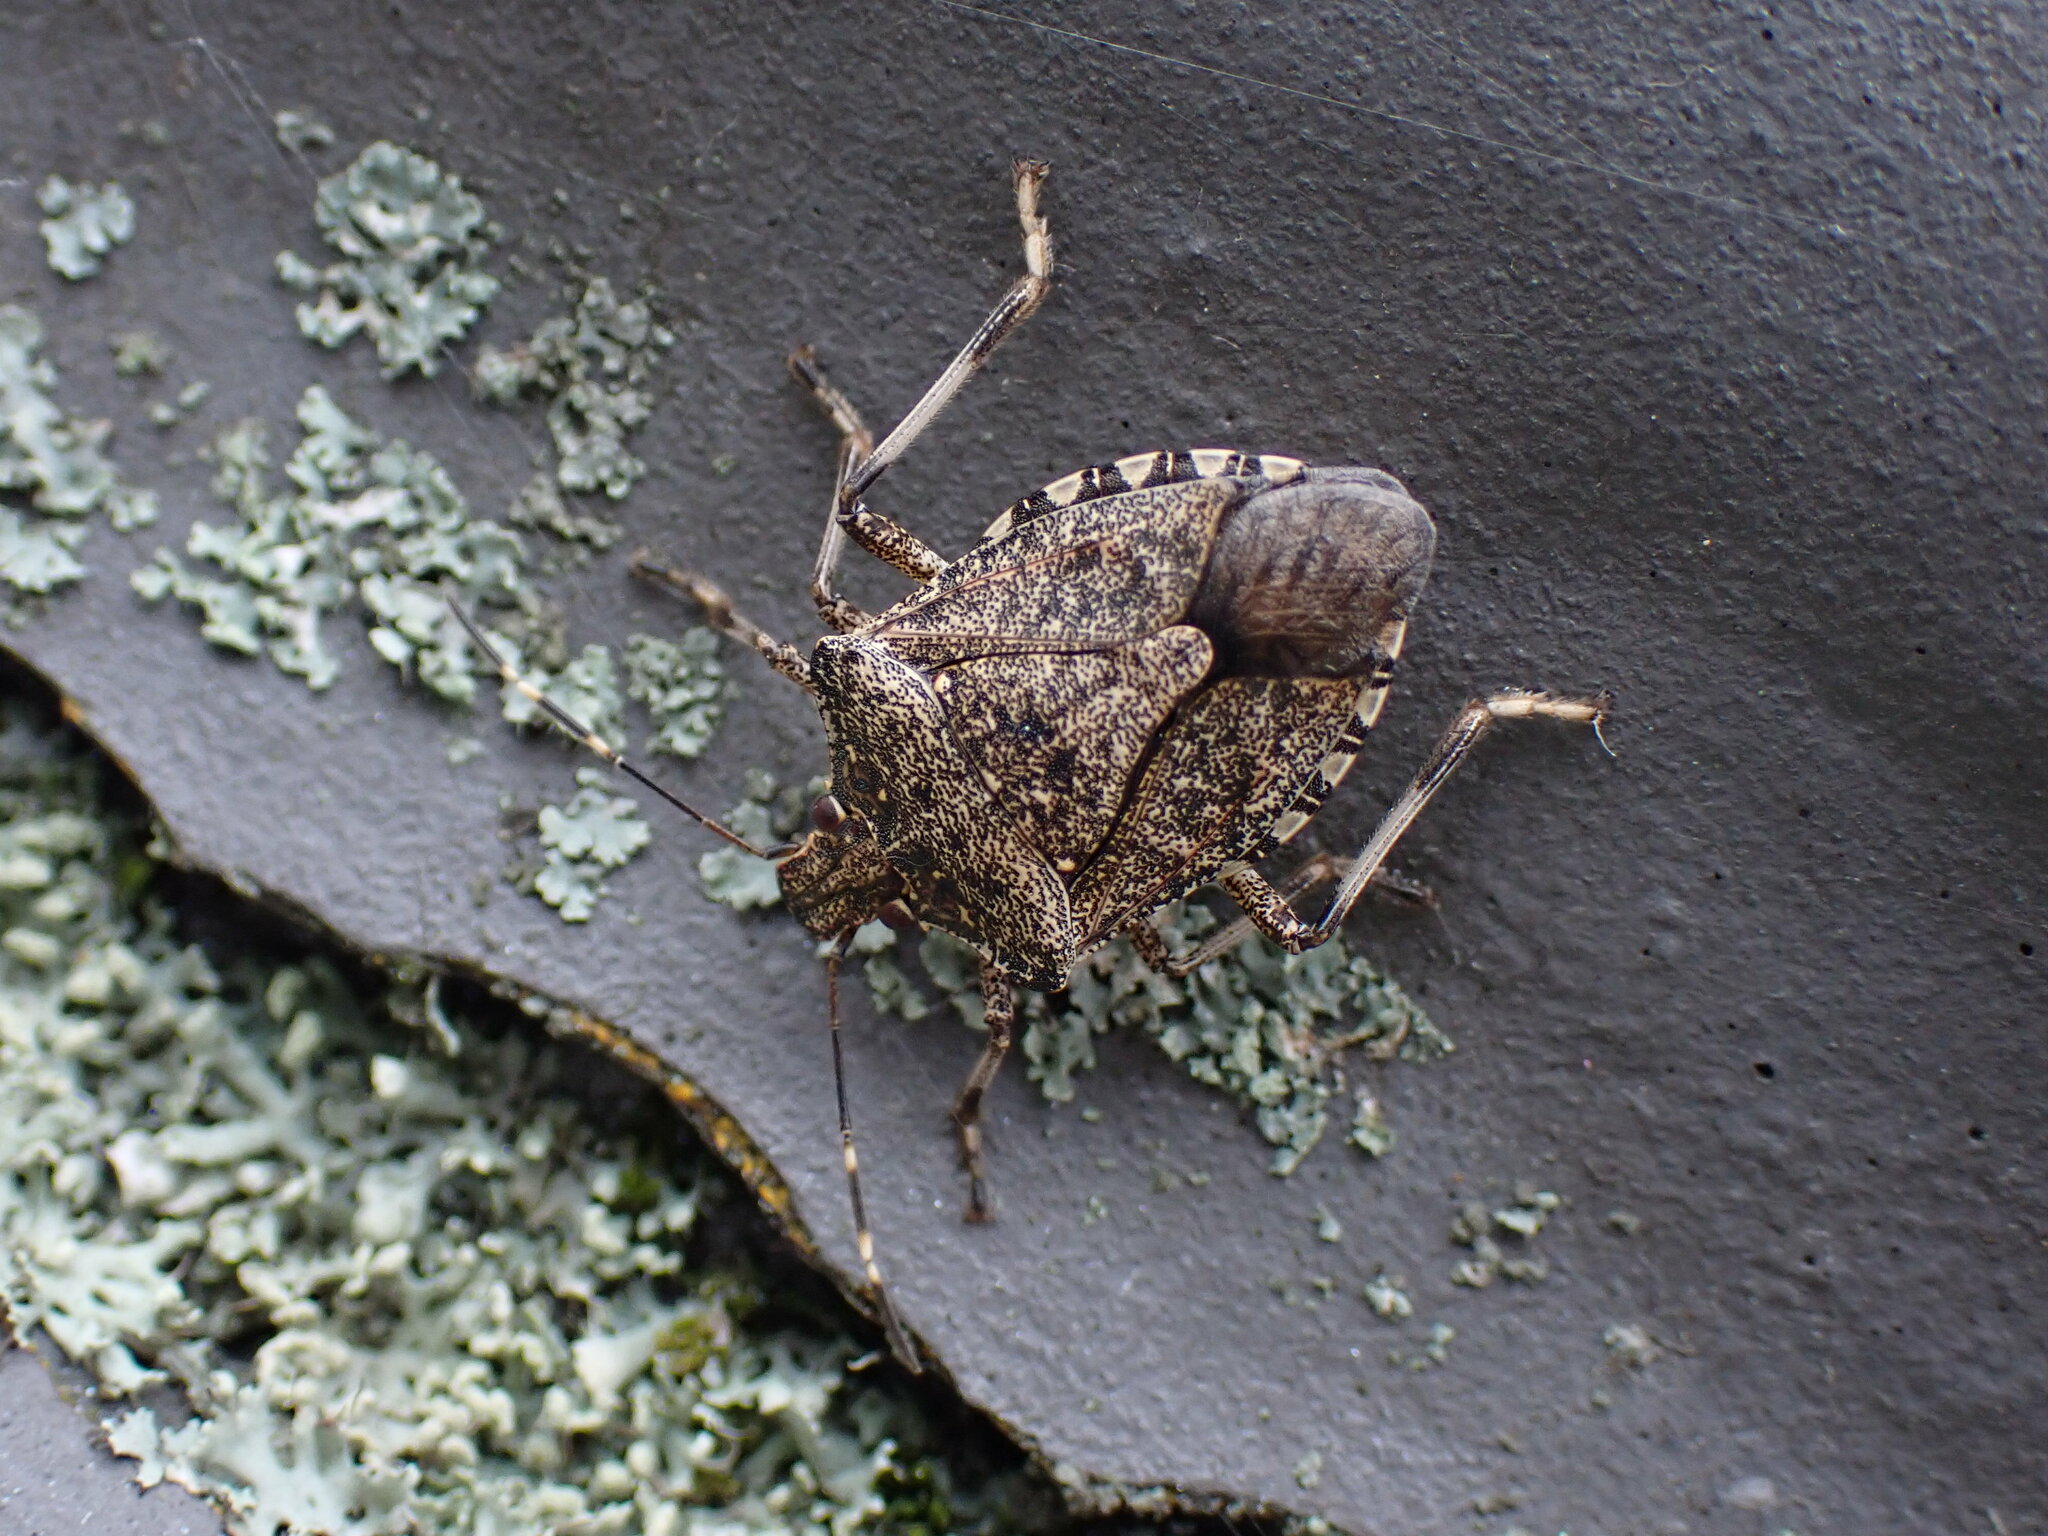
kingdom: Animalia
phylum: Arthropoda
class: Insecta
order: Hemiptera
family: Pentatomidae
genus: Halyomorpha
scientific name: Halyomorpha halys
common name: Brown marmorated stink bug
